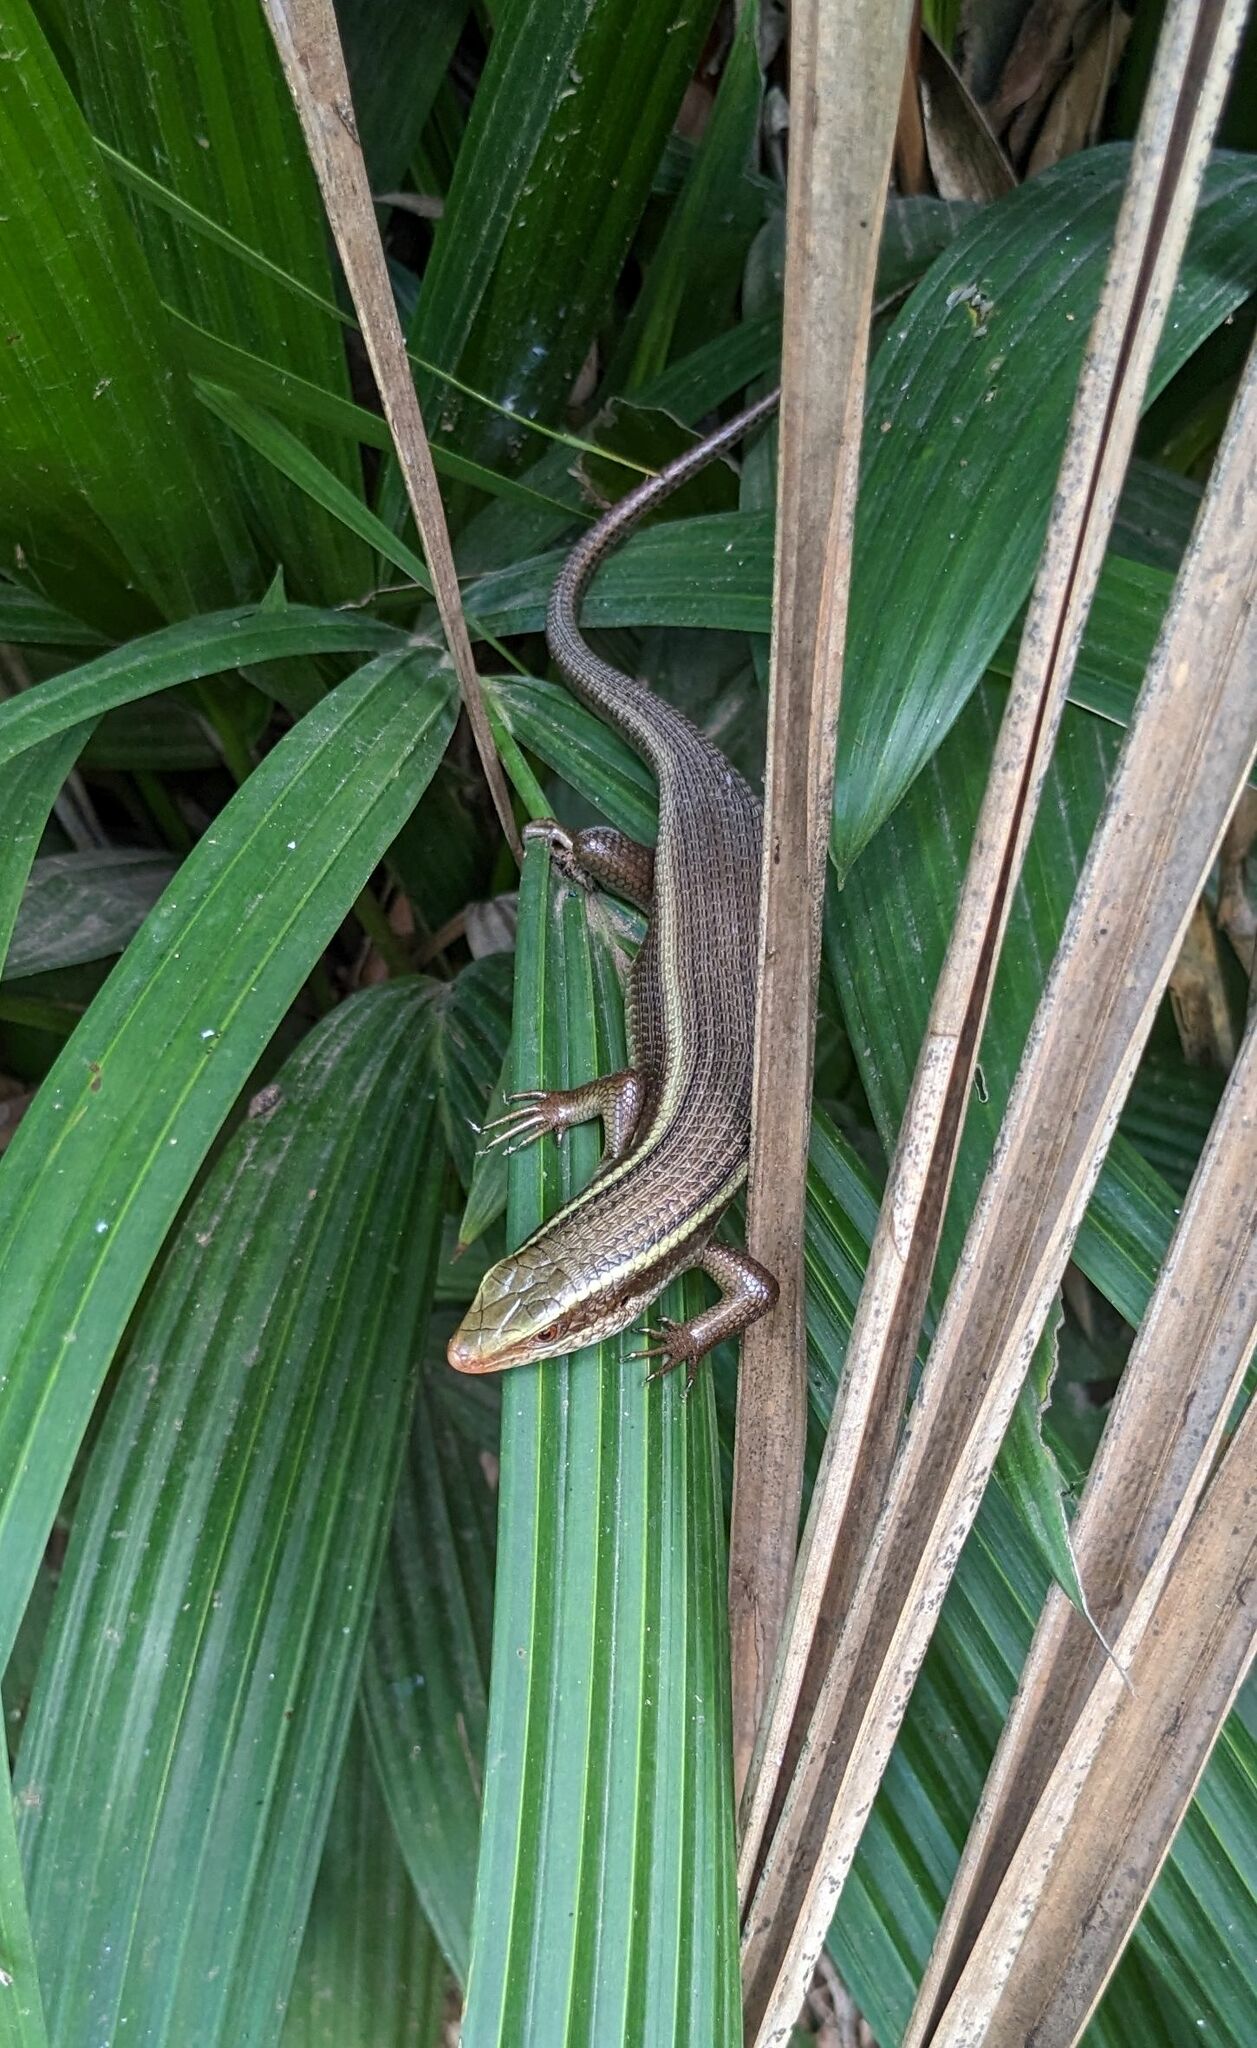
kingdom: Animalia
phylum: Chordata
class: Squamata
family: Scincidae
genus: Eutropis
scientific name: Eutropis carinata
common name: Keeled indian mabuya
